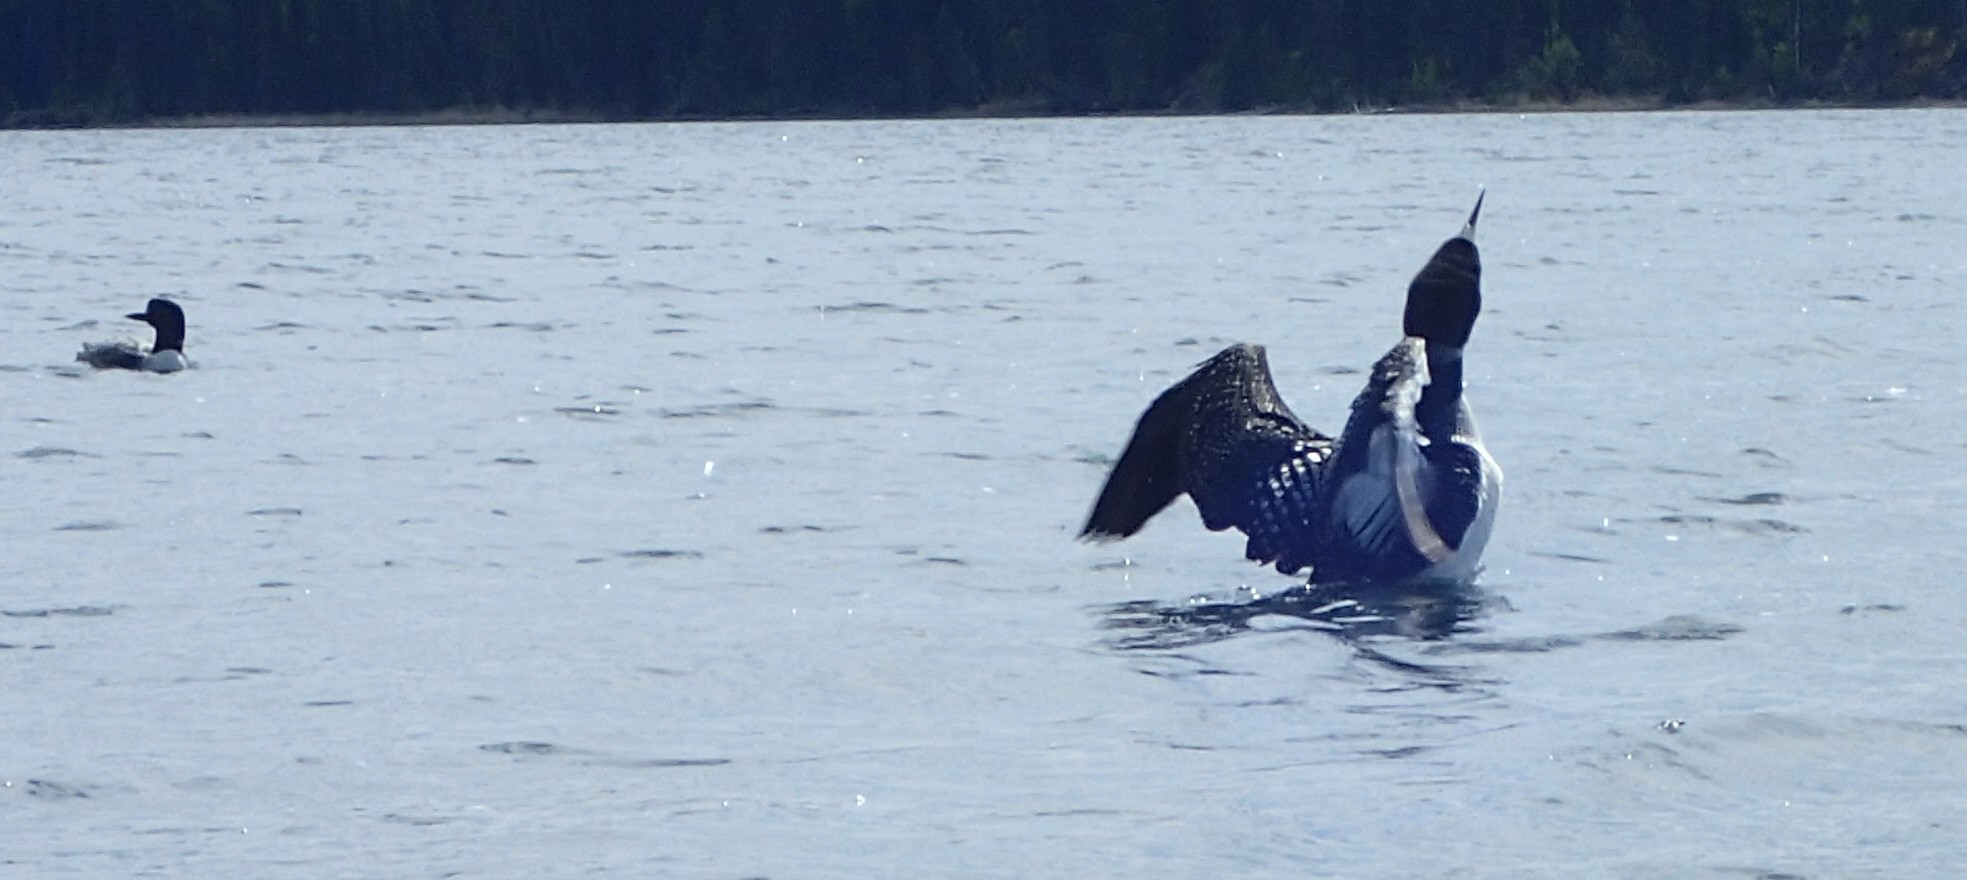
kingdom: Animalia
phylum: Chordata
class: Aves
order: Gaviiformes
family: Gaviidae
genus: Gavia
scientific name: Gavia immer
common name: Common loon
